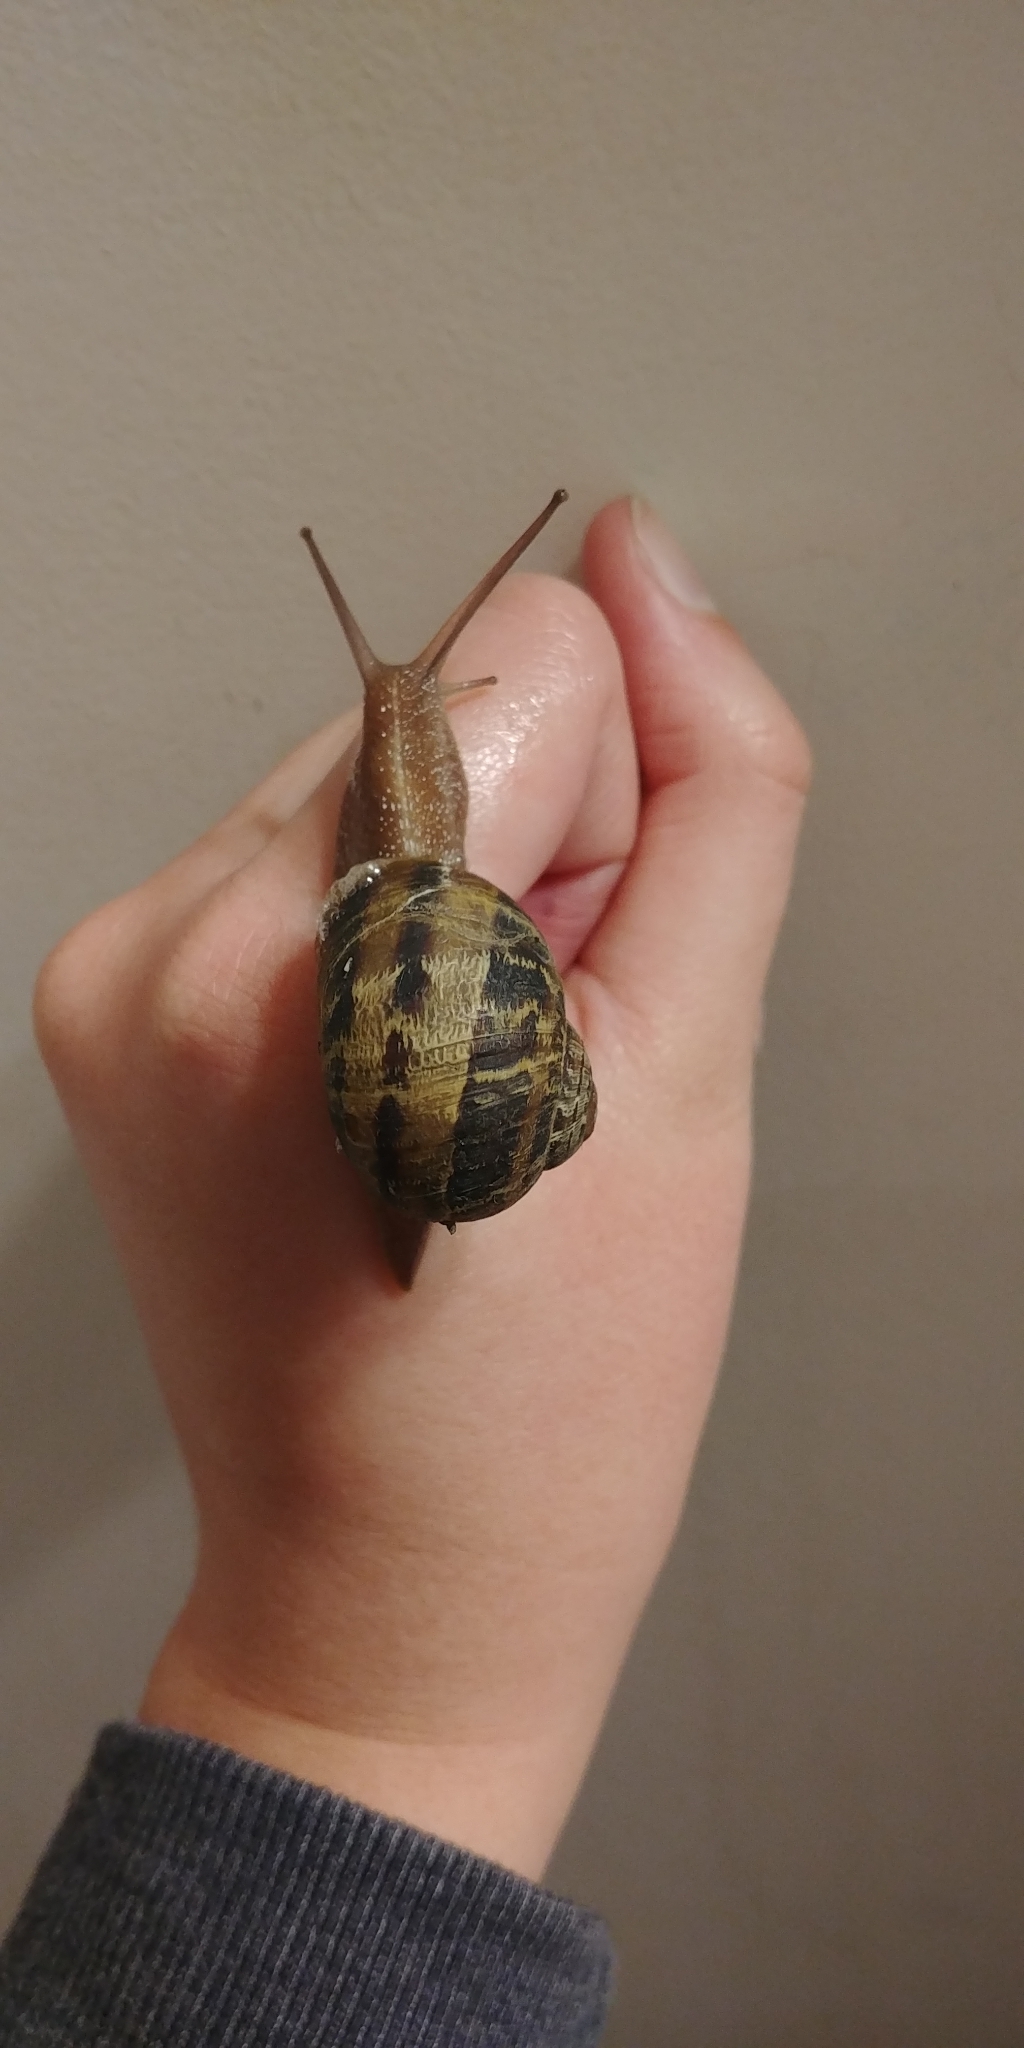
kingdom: Animalia
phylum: Mollusca
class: Gastropoda
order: Stylommatophora
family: Helicidae
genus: Cornu
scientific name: Cornu aspersum
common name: Brown garden snail
